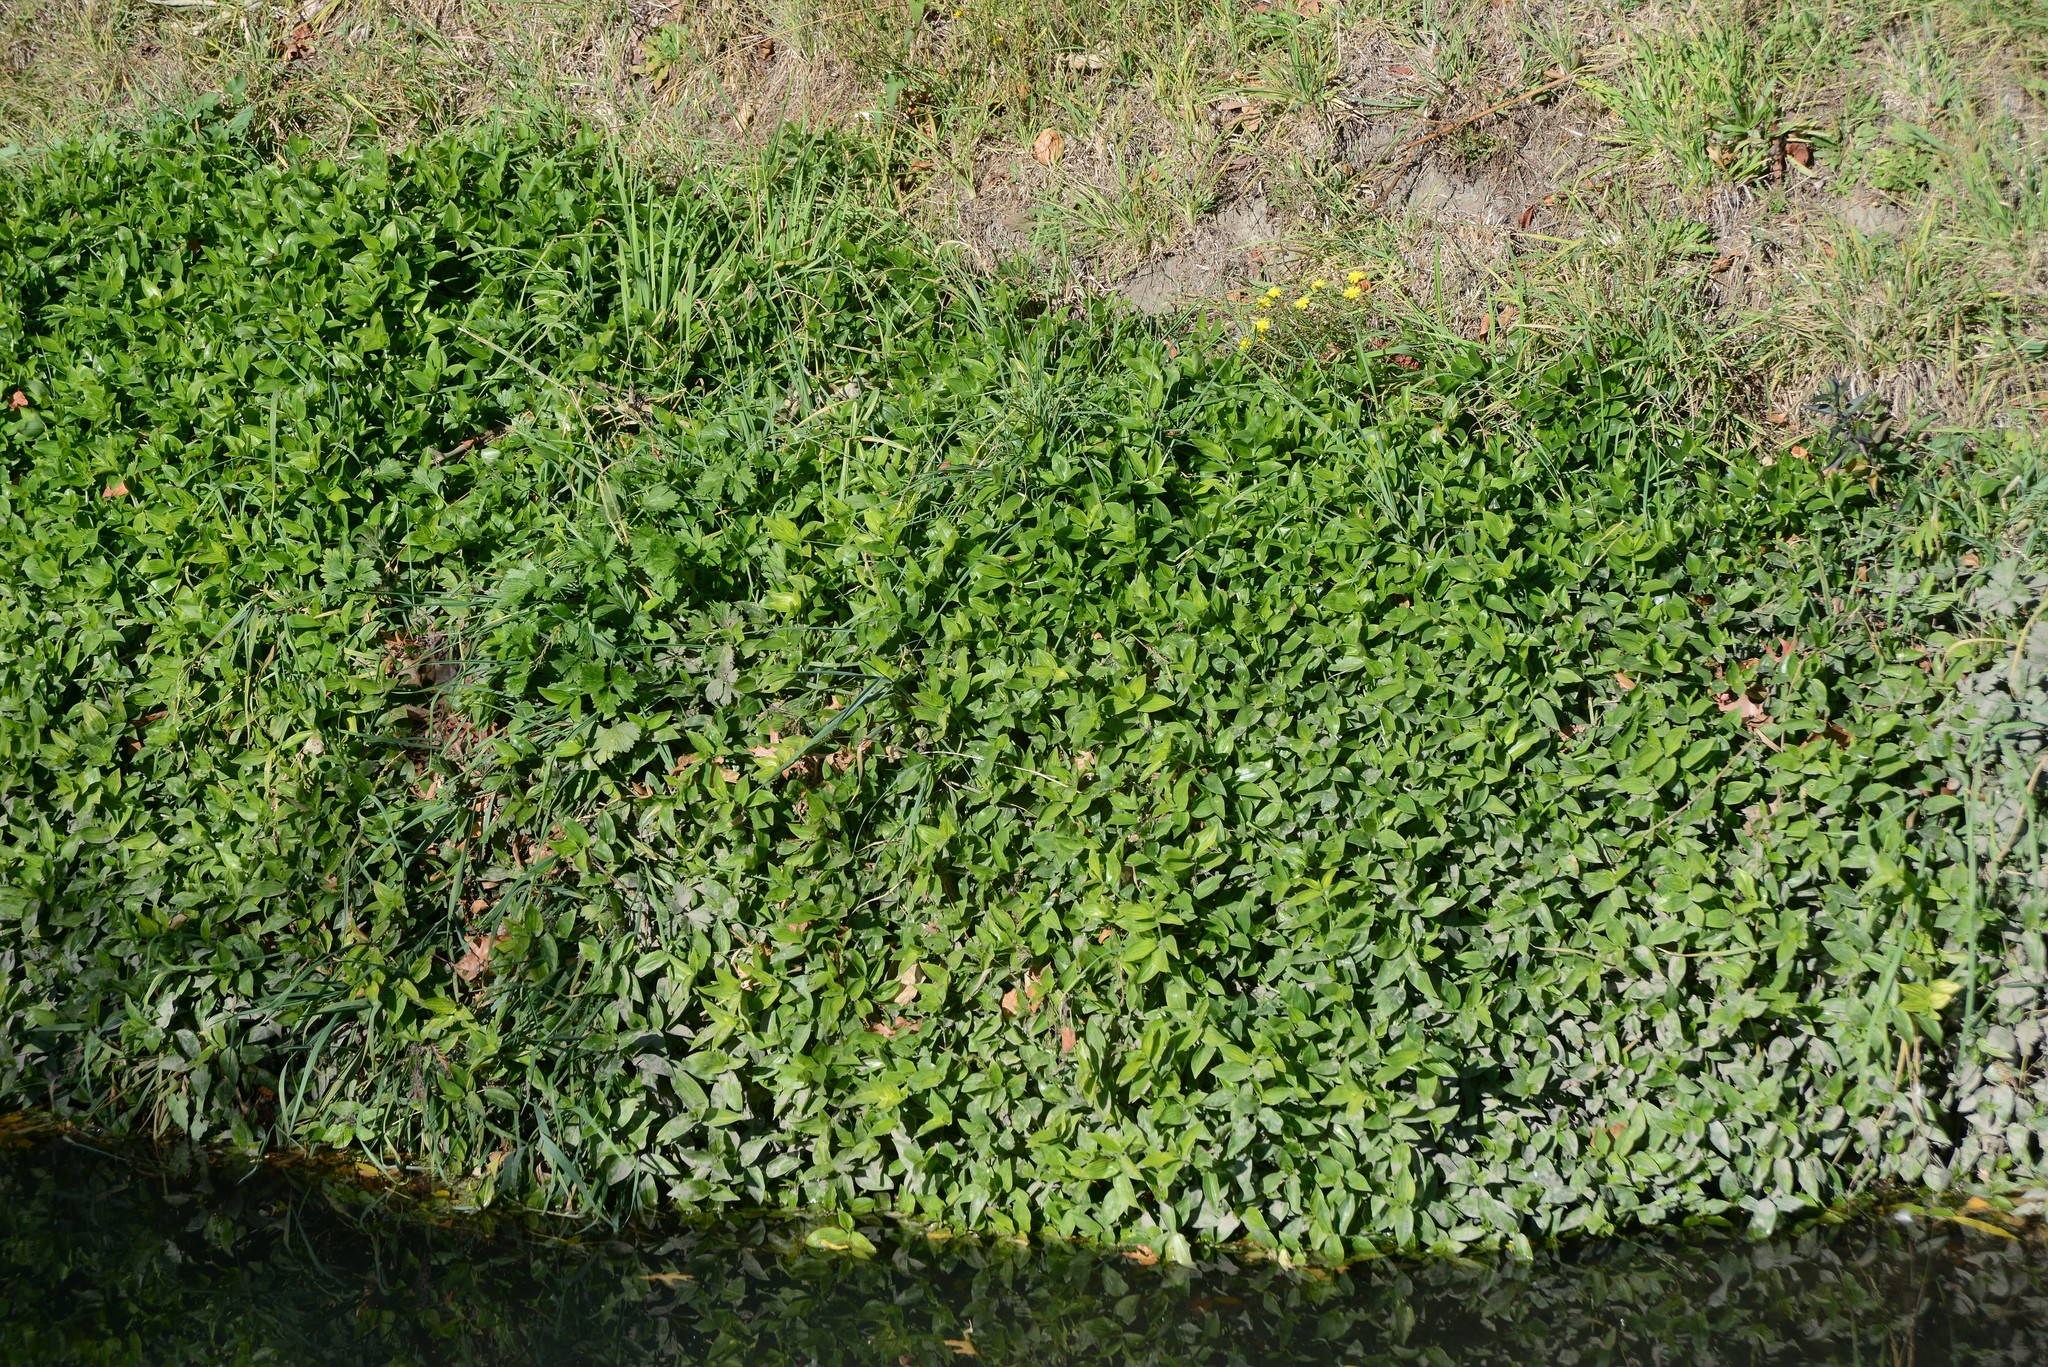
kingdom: Plantae
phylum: Tracheophyta
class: Liliopsida
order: Commelinales
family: Commelinaceae
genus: Tradescantia
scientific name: Tradescantia fluminensis
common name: Wandering-jew
